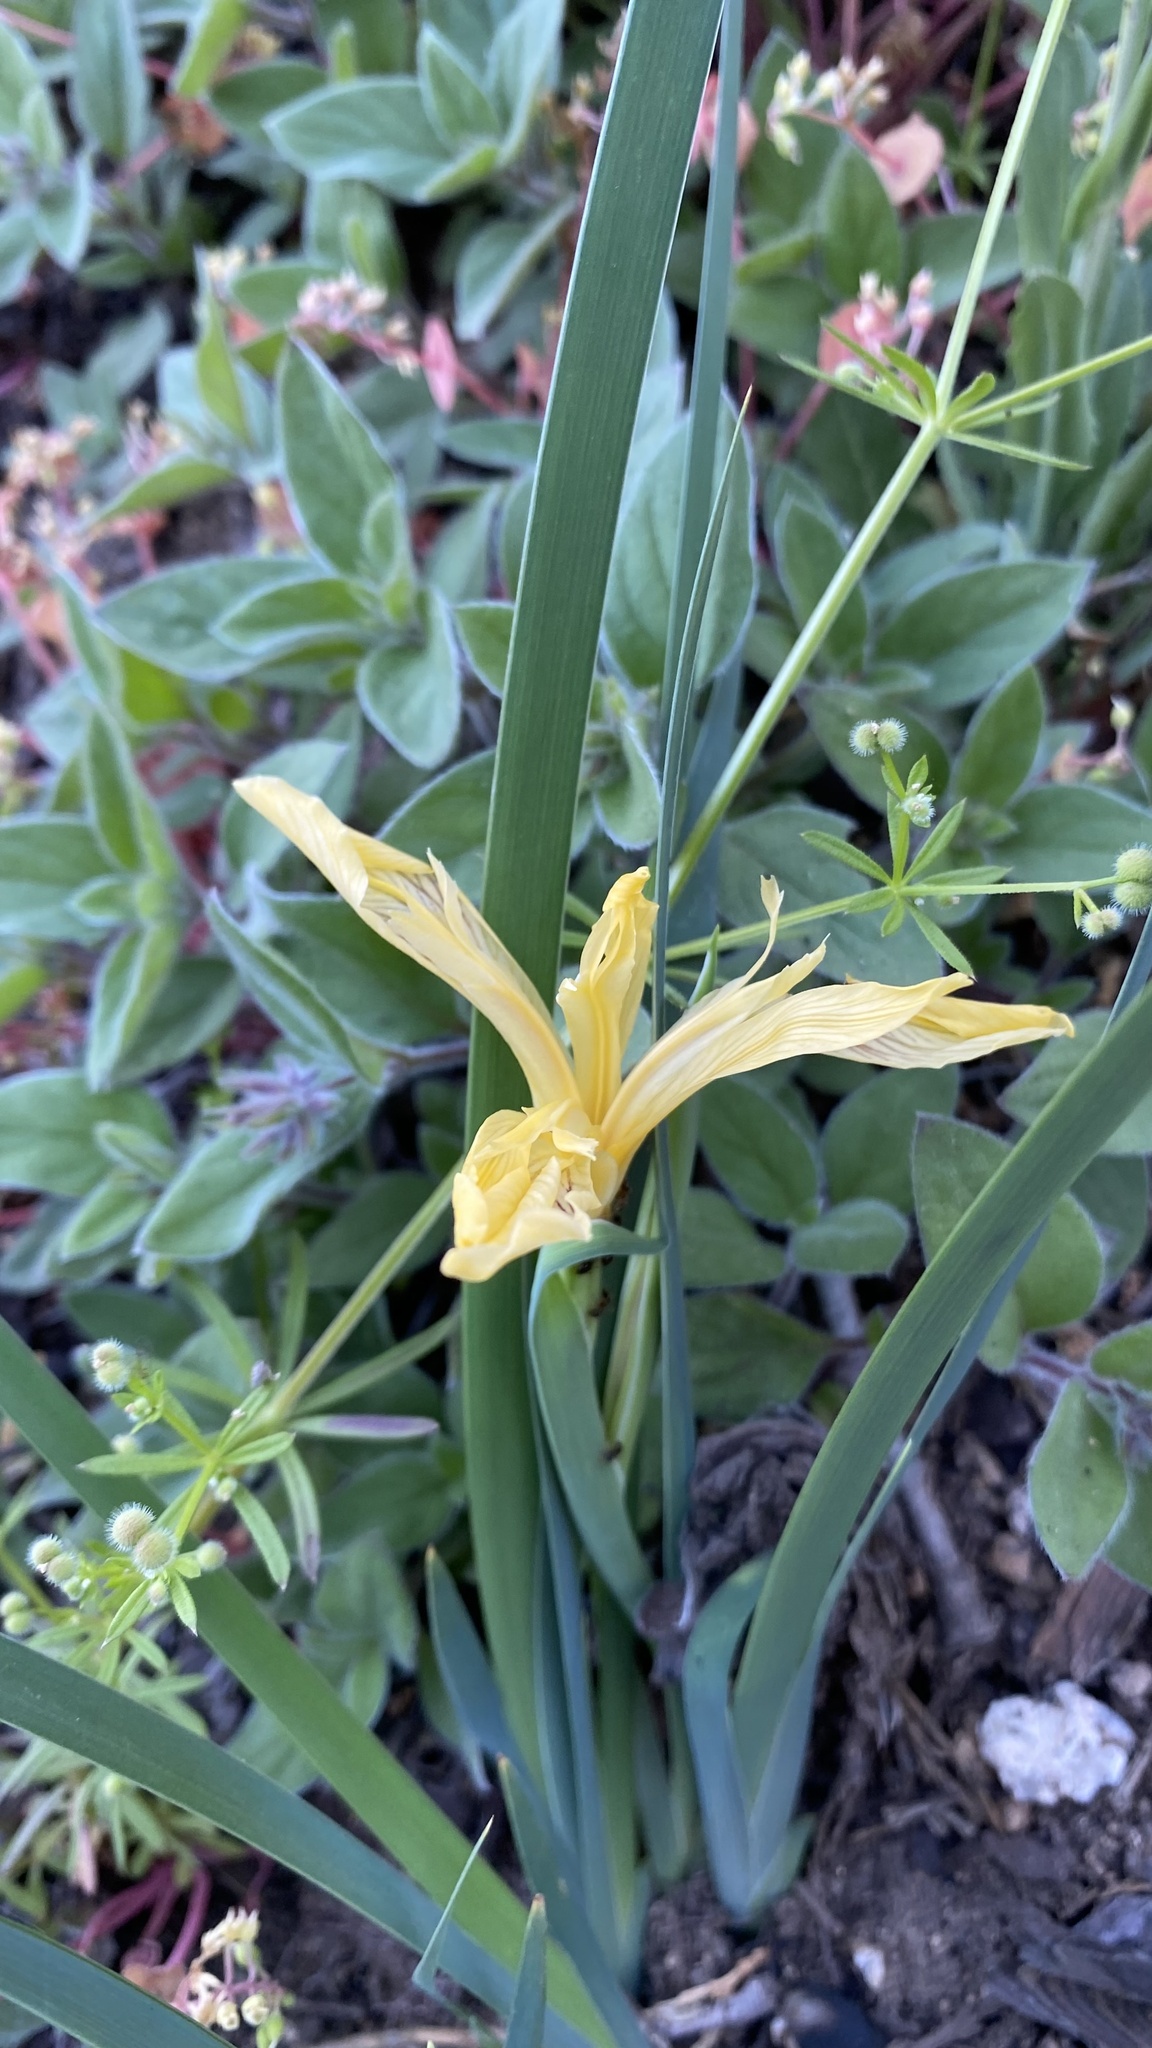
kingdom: Plantae
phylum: Tracheophyta
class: Liliopsida
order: Asparagales
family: Iridaceae
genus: Iris
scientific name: Iris hartwegii
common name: Sierra iris
